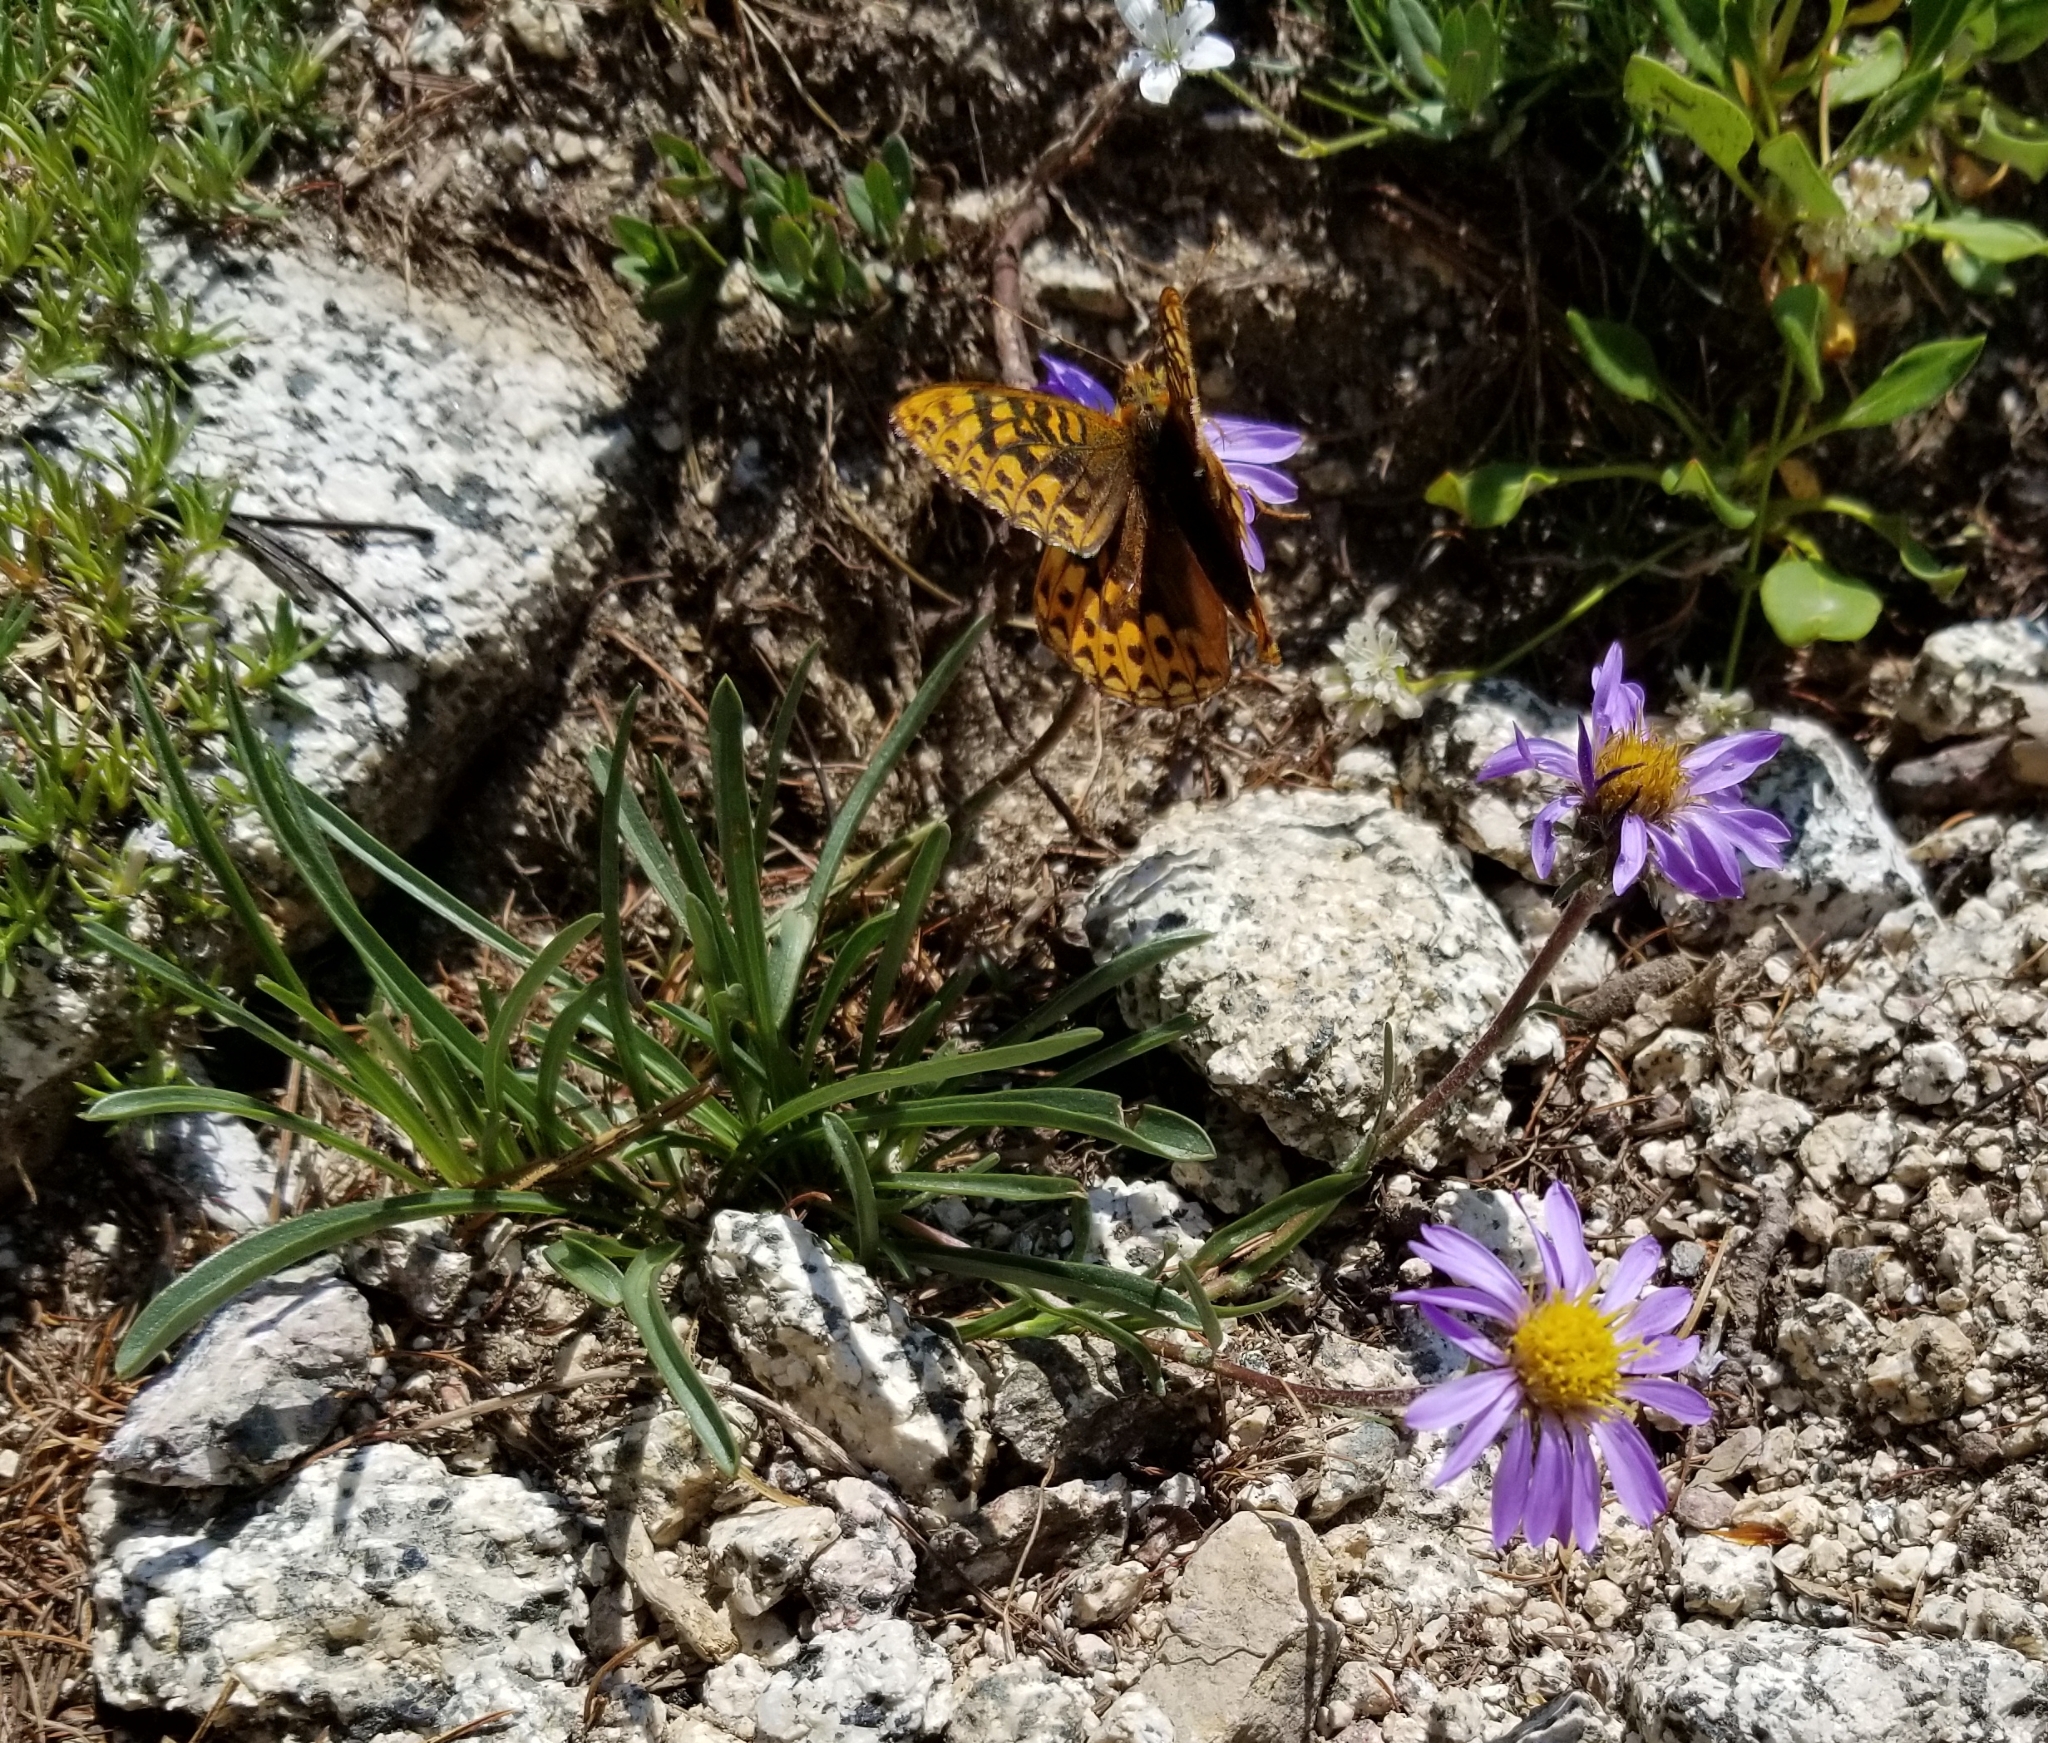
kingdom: Animalia
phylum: Arthropoda
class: Insecta
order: Lepidoptera
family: Nymphalidae
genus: Speyeria
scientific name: Speyeria hydaspe
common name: Hydaspe fritillary
